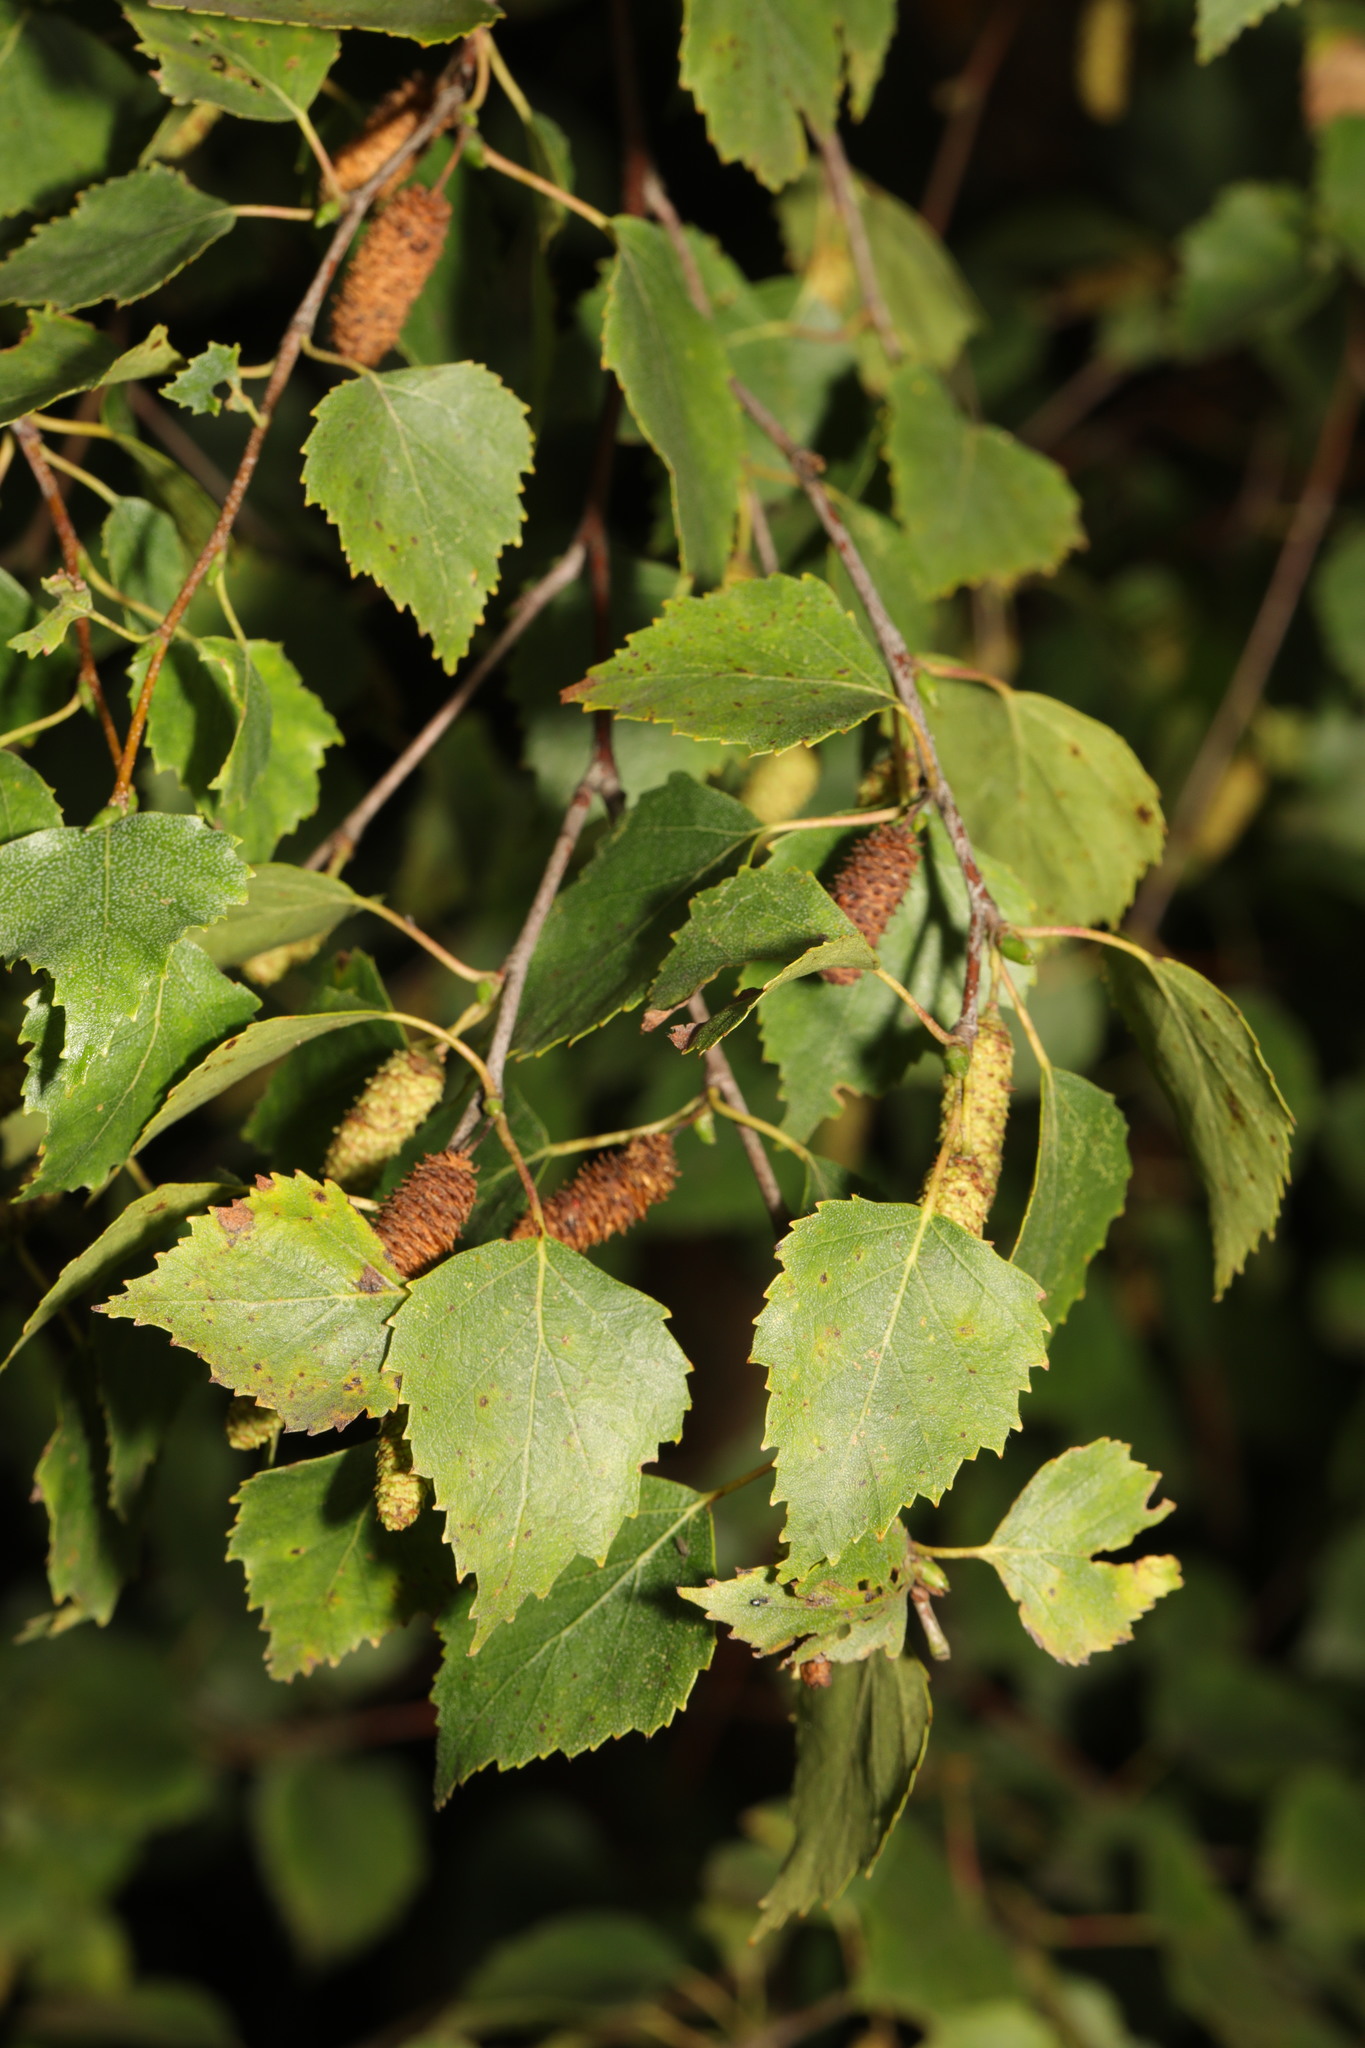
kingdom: Plantae
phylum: Tracheophyta
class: Magnoliopsida
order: Fagales
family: Betulaceae
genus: Betula
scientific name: Betula pendula
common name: Silver birch
